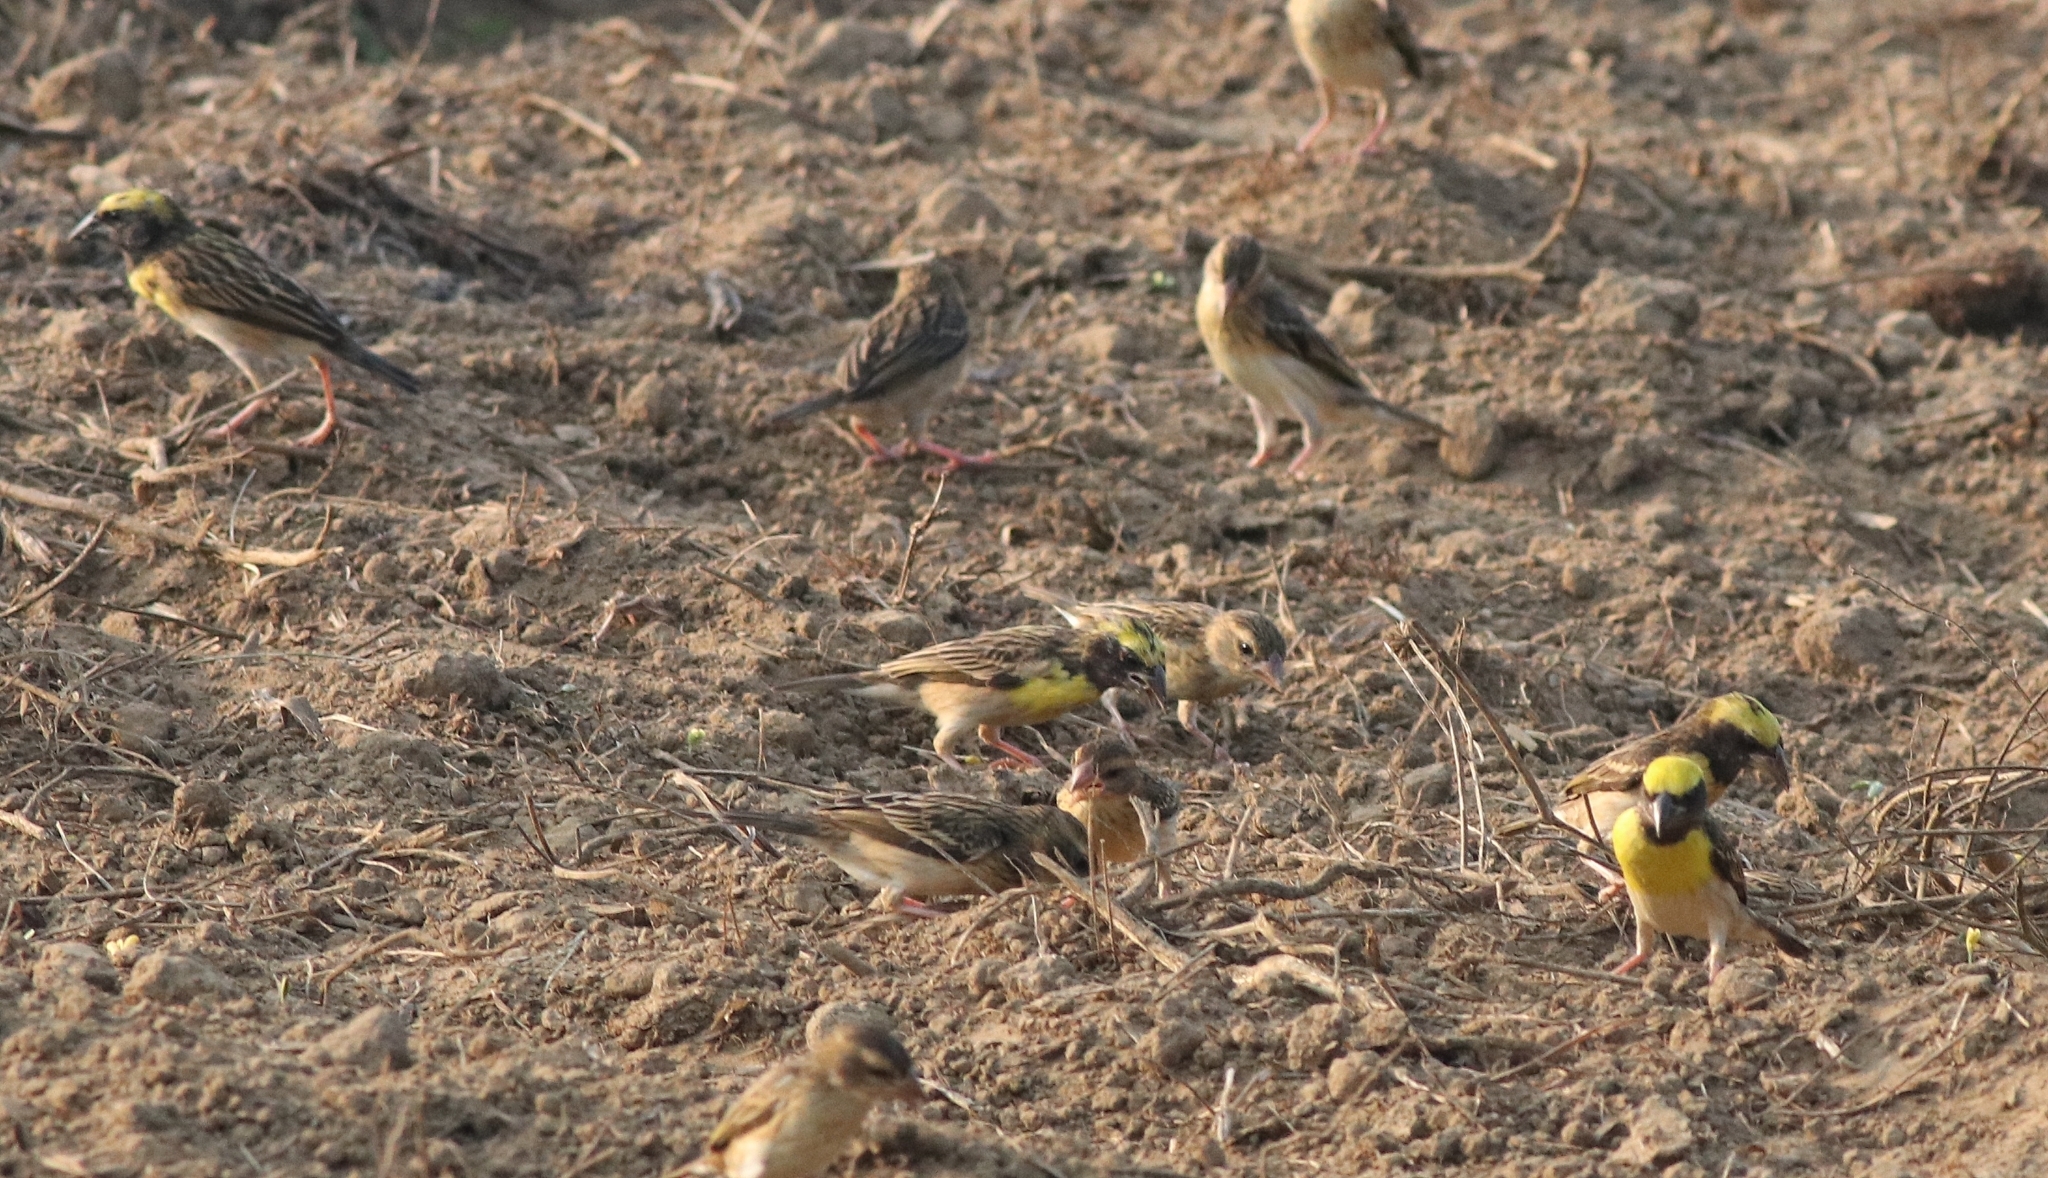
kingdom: Animalia
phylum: Chordata
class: Aves
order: Passeriformes
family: Ploceidae
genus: Ploceus
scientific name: Ploceus philippinus
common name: Baya weaver
